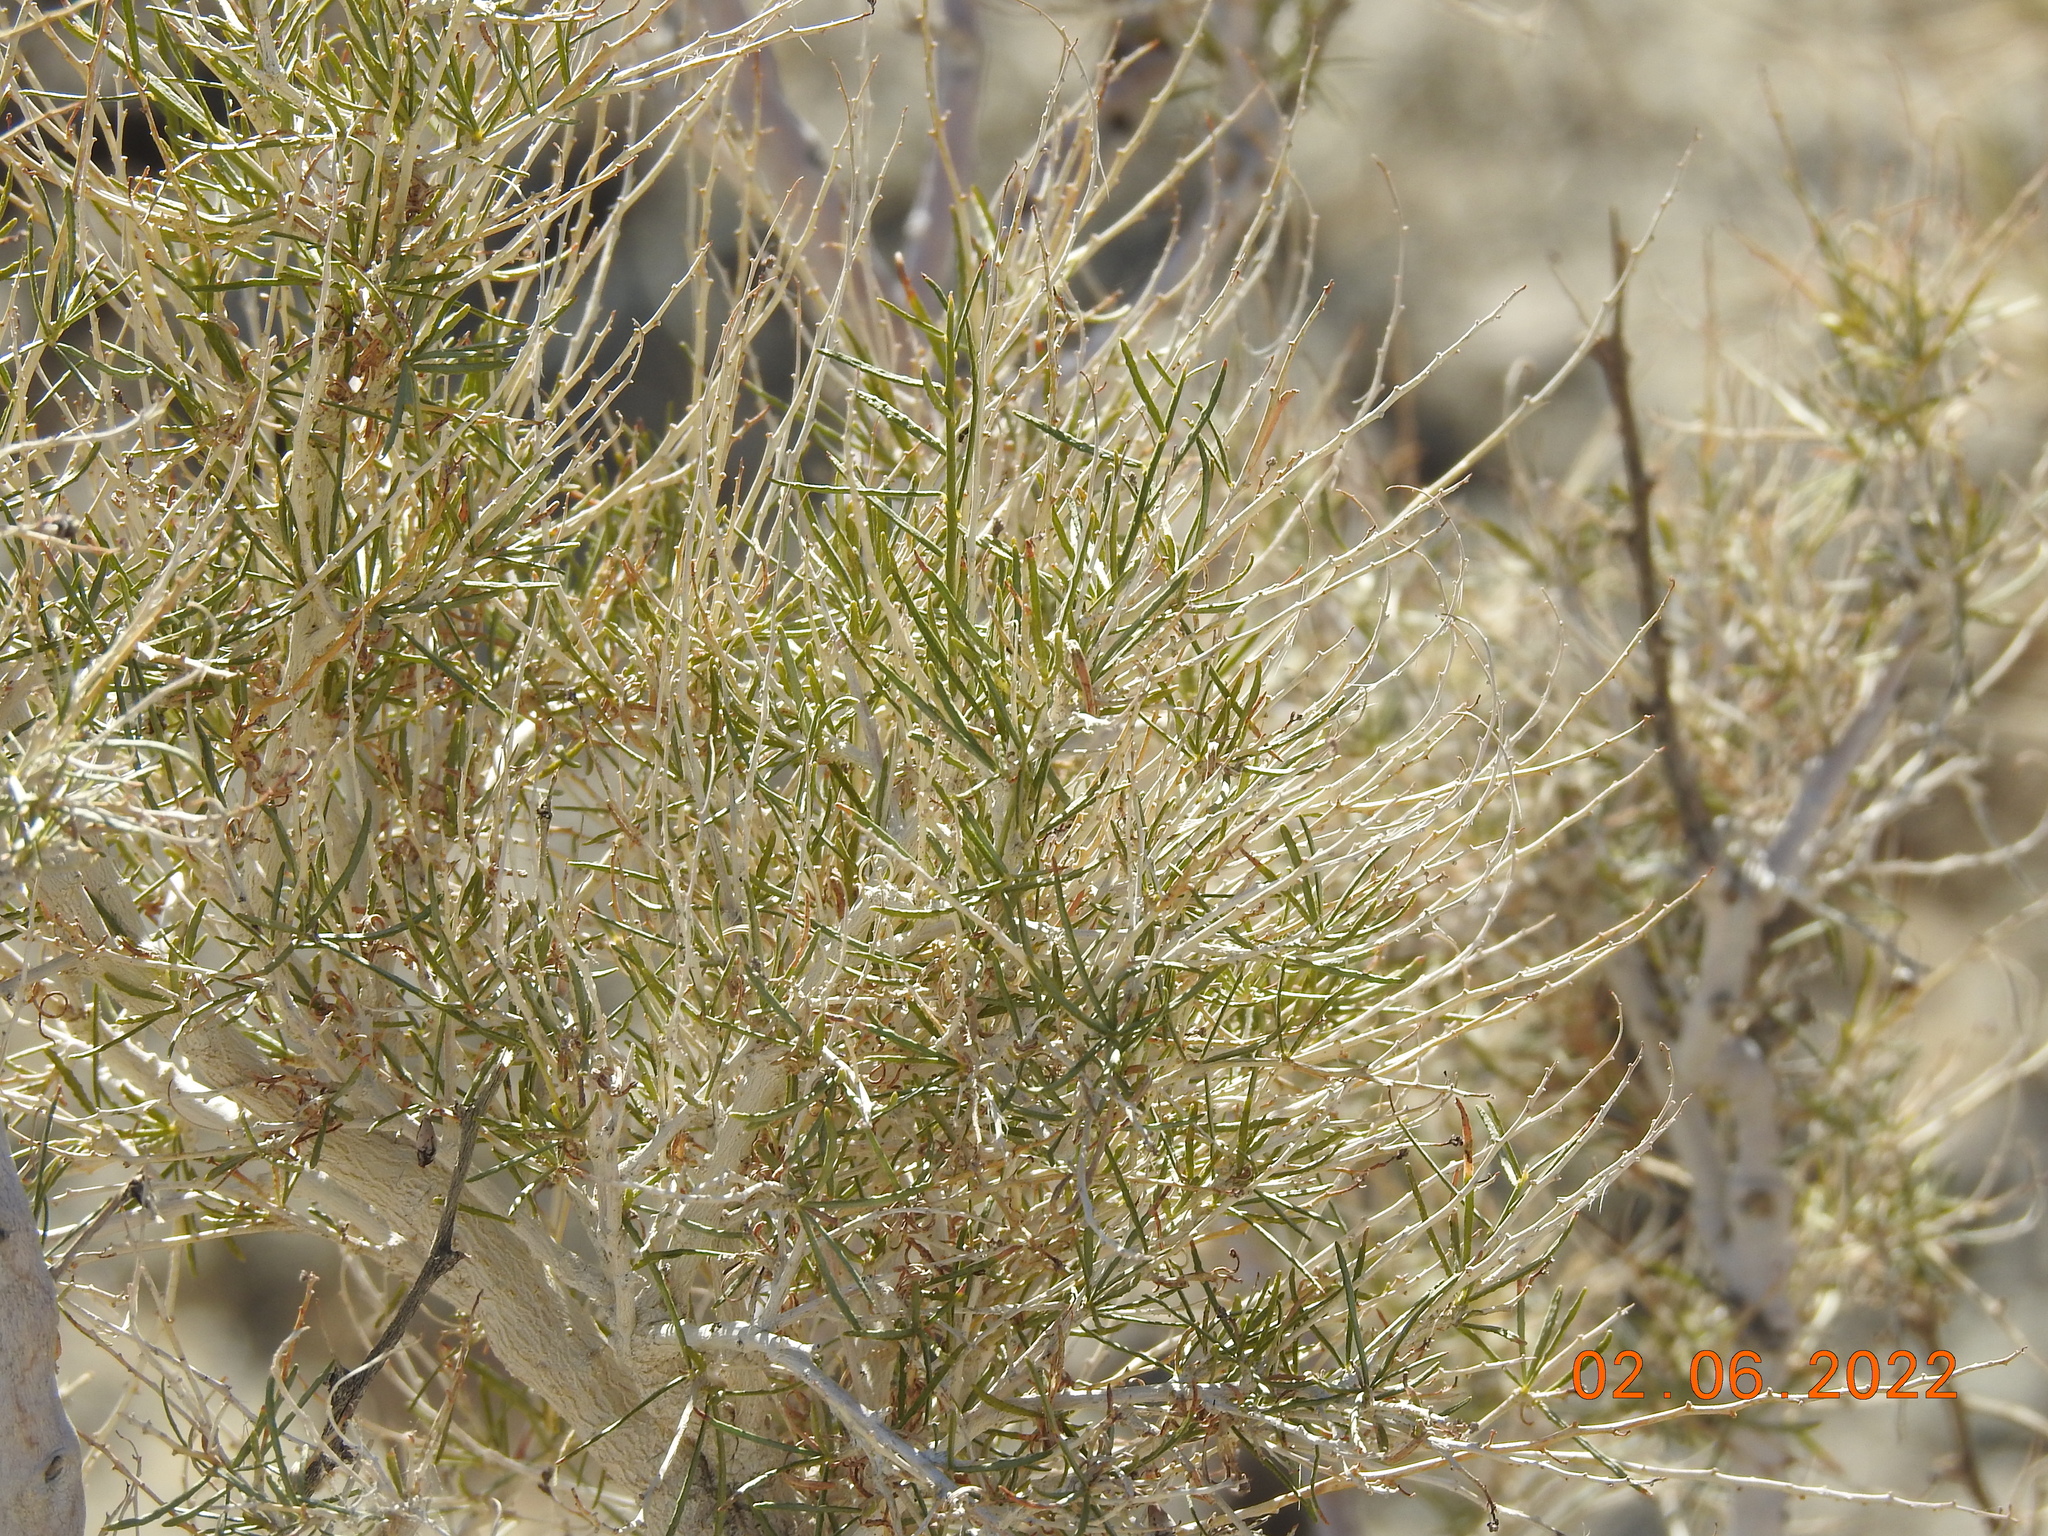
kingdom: Plantae
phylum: Tracheophyta
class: Magnoliopsida
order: Fabales
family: Fabaceae
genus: Psorothamnus
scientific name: Psorothamnus schottii
